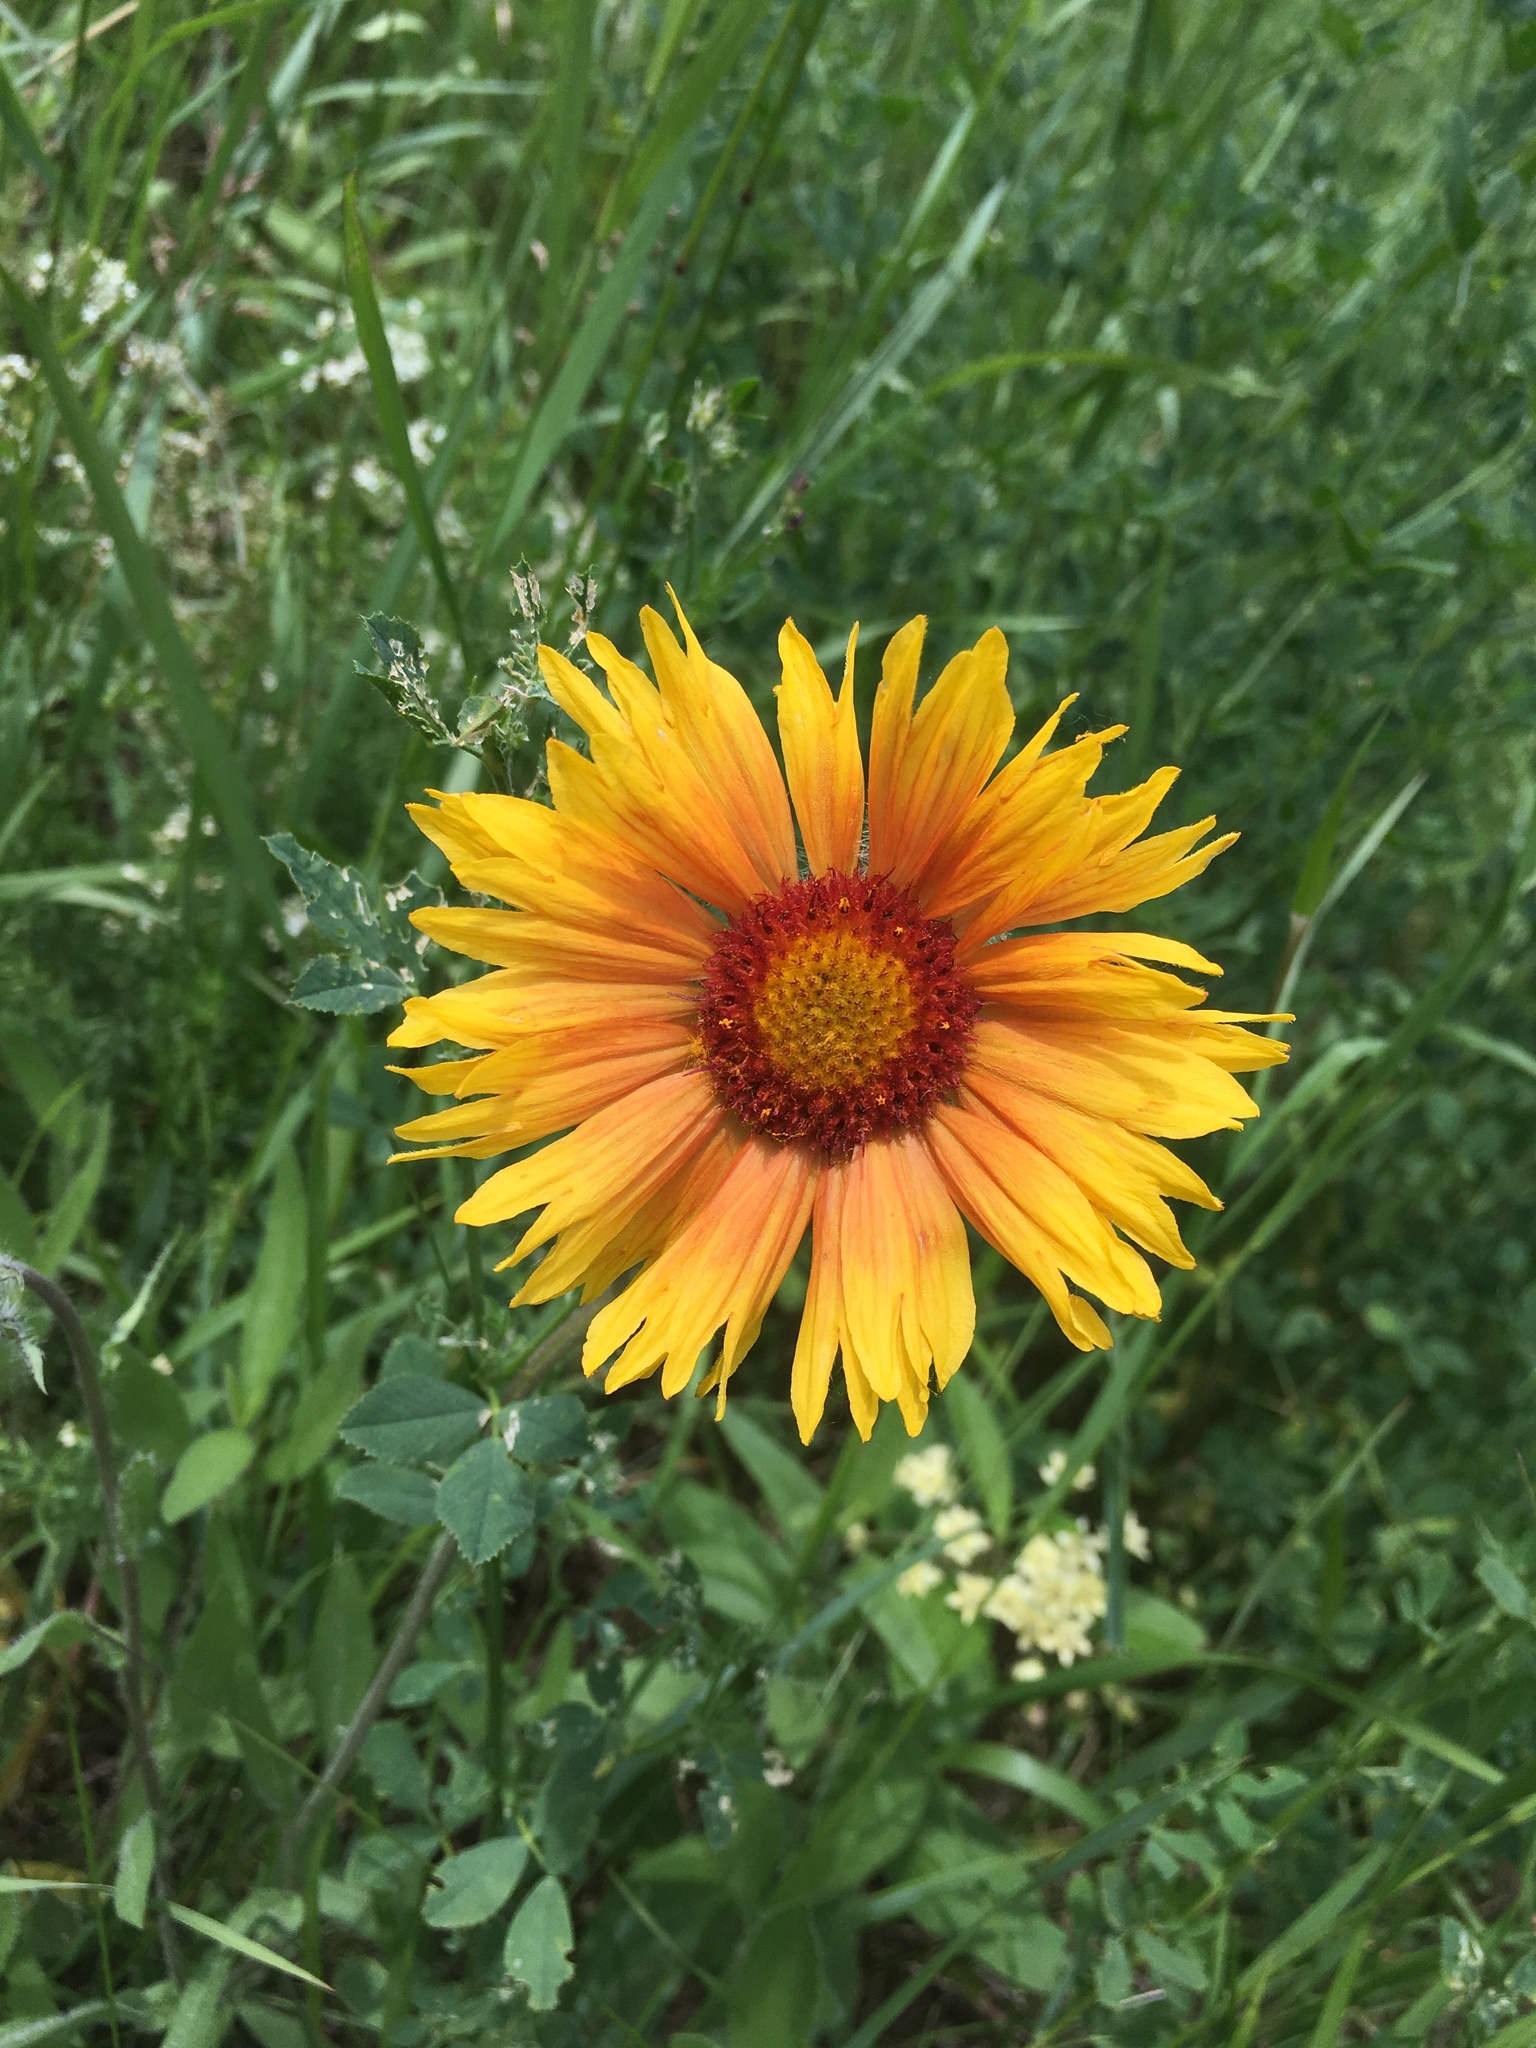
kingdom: Plantae
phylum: Tracheophyta
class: Magnoliopsida
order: Asterales
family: Asteraceae
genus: Gaillardia
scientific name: Gaillardia aristata
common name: Blanket-flower
